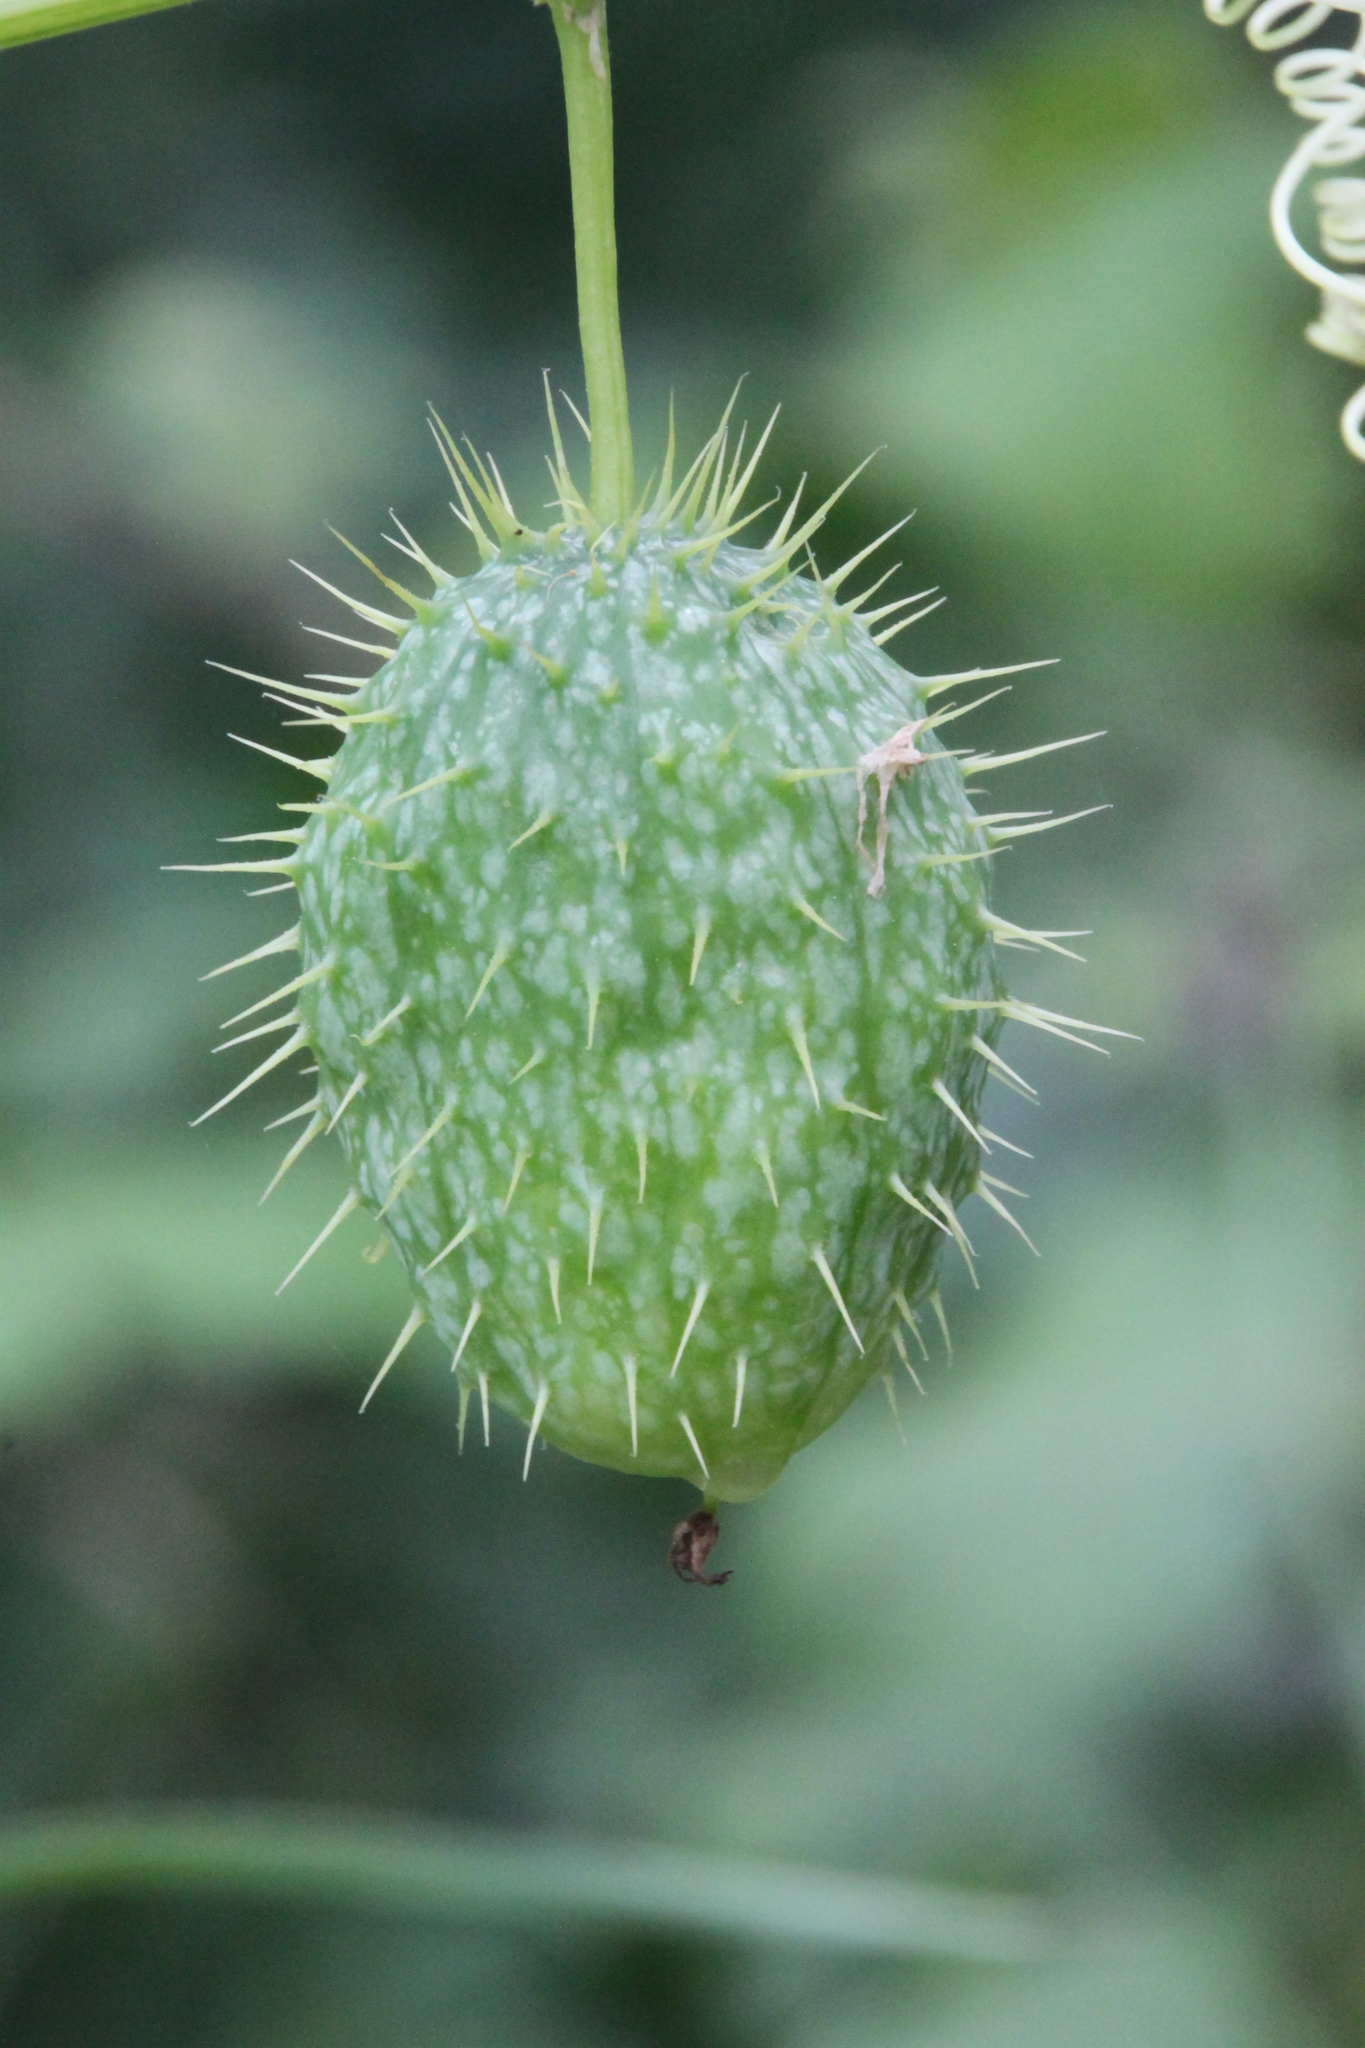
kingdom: Plantae
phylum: Tracheophyta
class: Magnoliopsida
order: Cucurbitales
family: Cucurbitaceae
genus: Echinocystis
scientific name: Echinocystis lobata
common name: Wild cucumber
